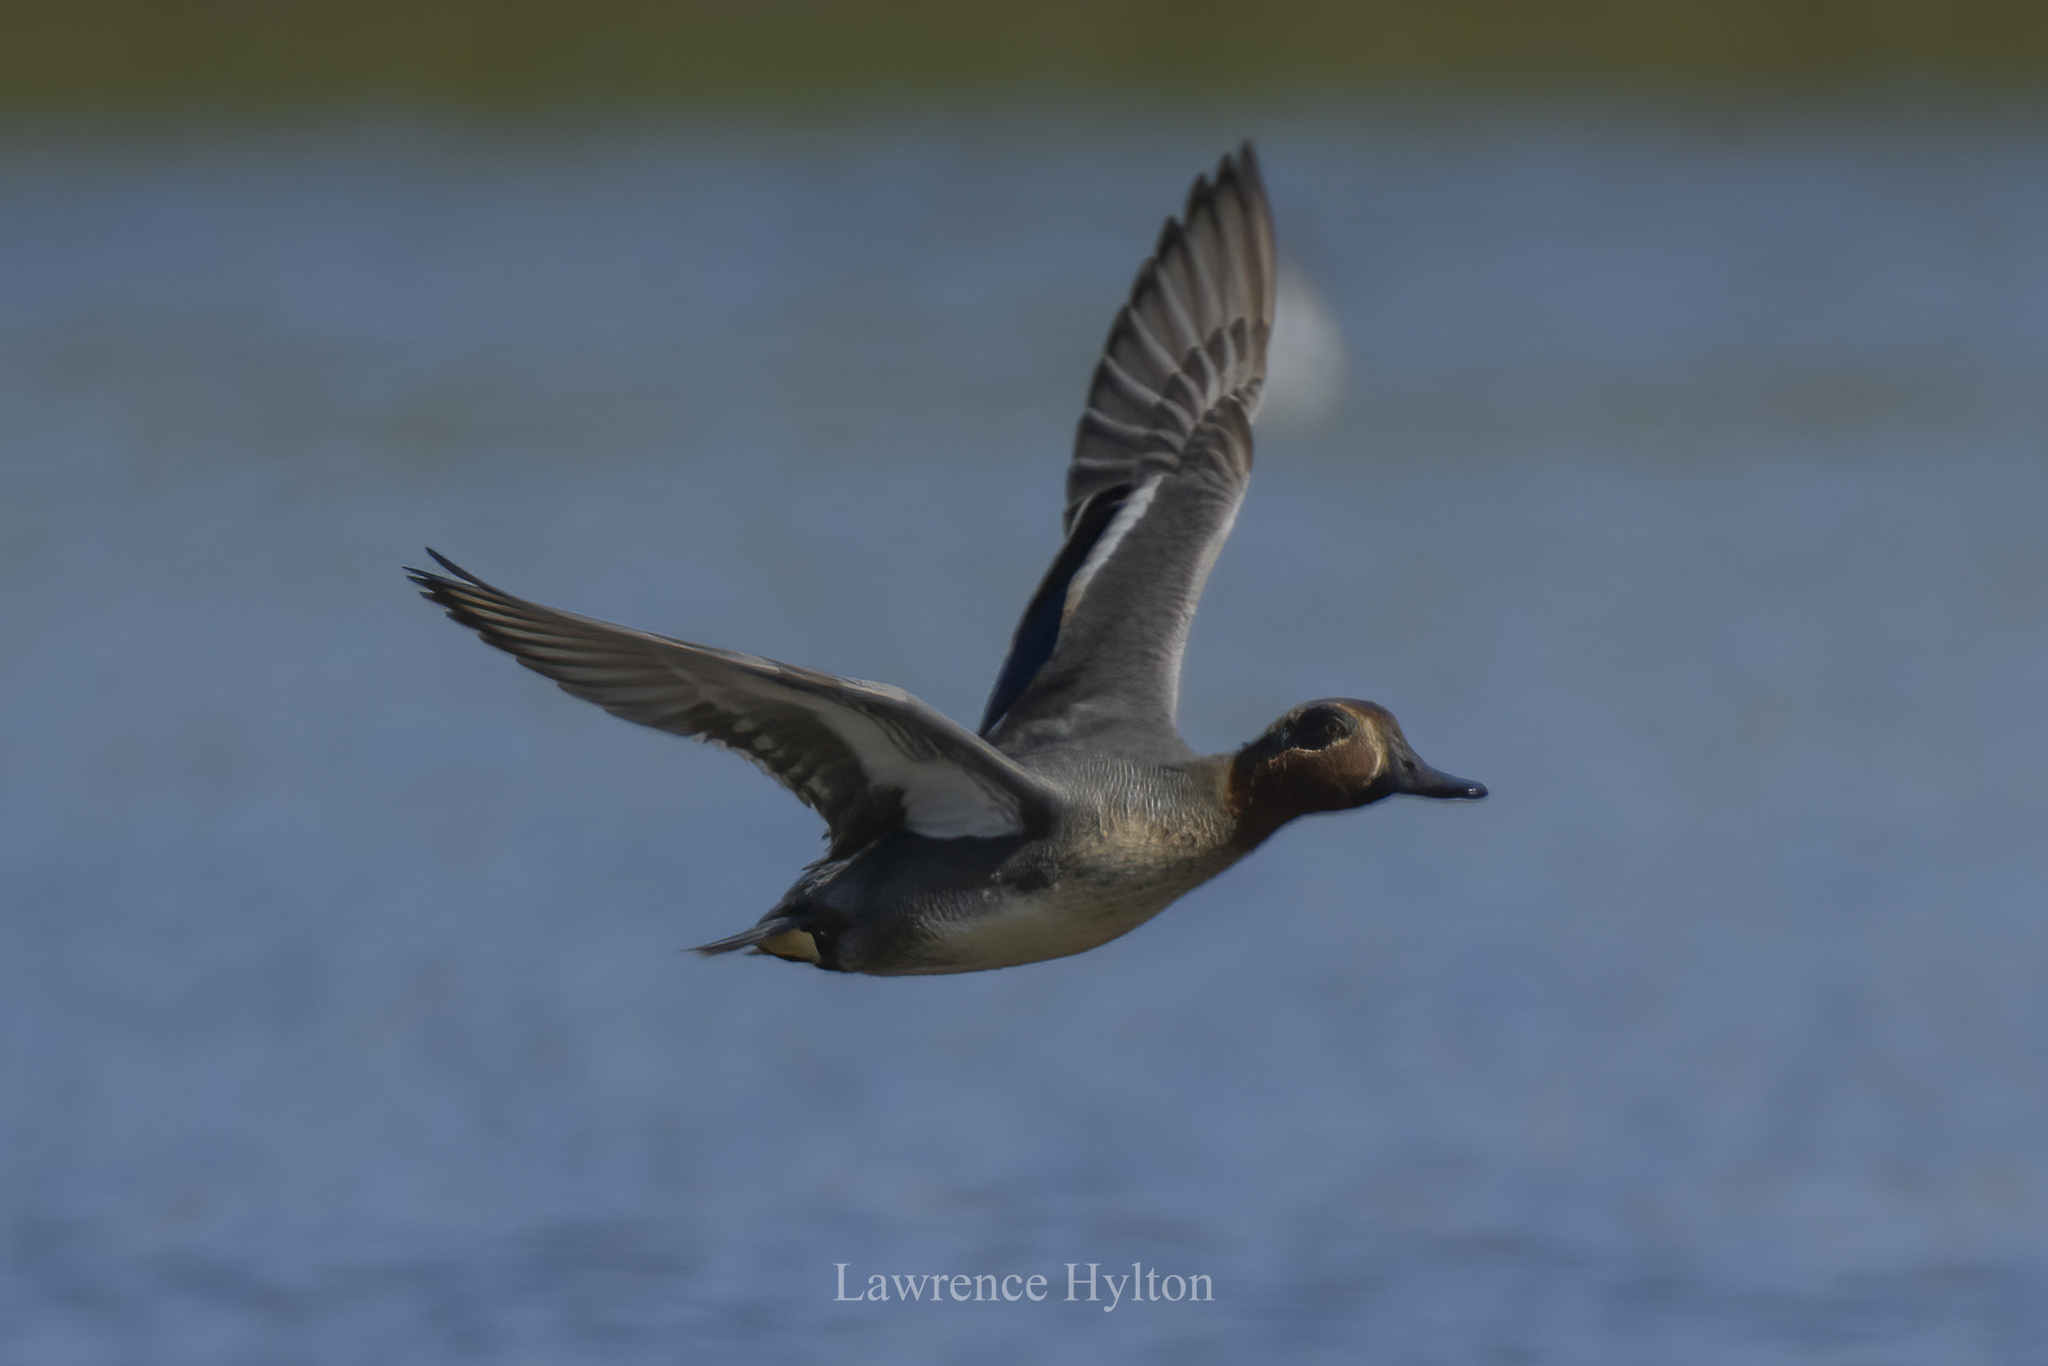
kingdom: Animalia
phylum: Chordata
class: Aves
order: Anseriformes
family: Anatidae
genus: Anas
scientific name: Anas crecca
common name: Eurasian teal
